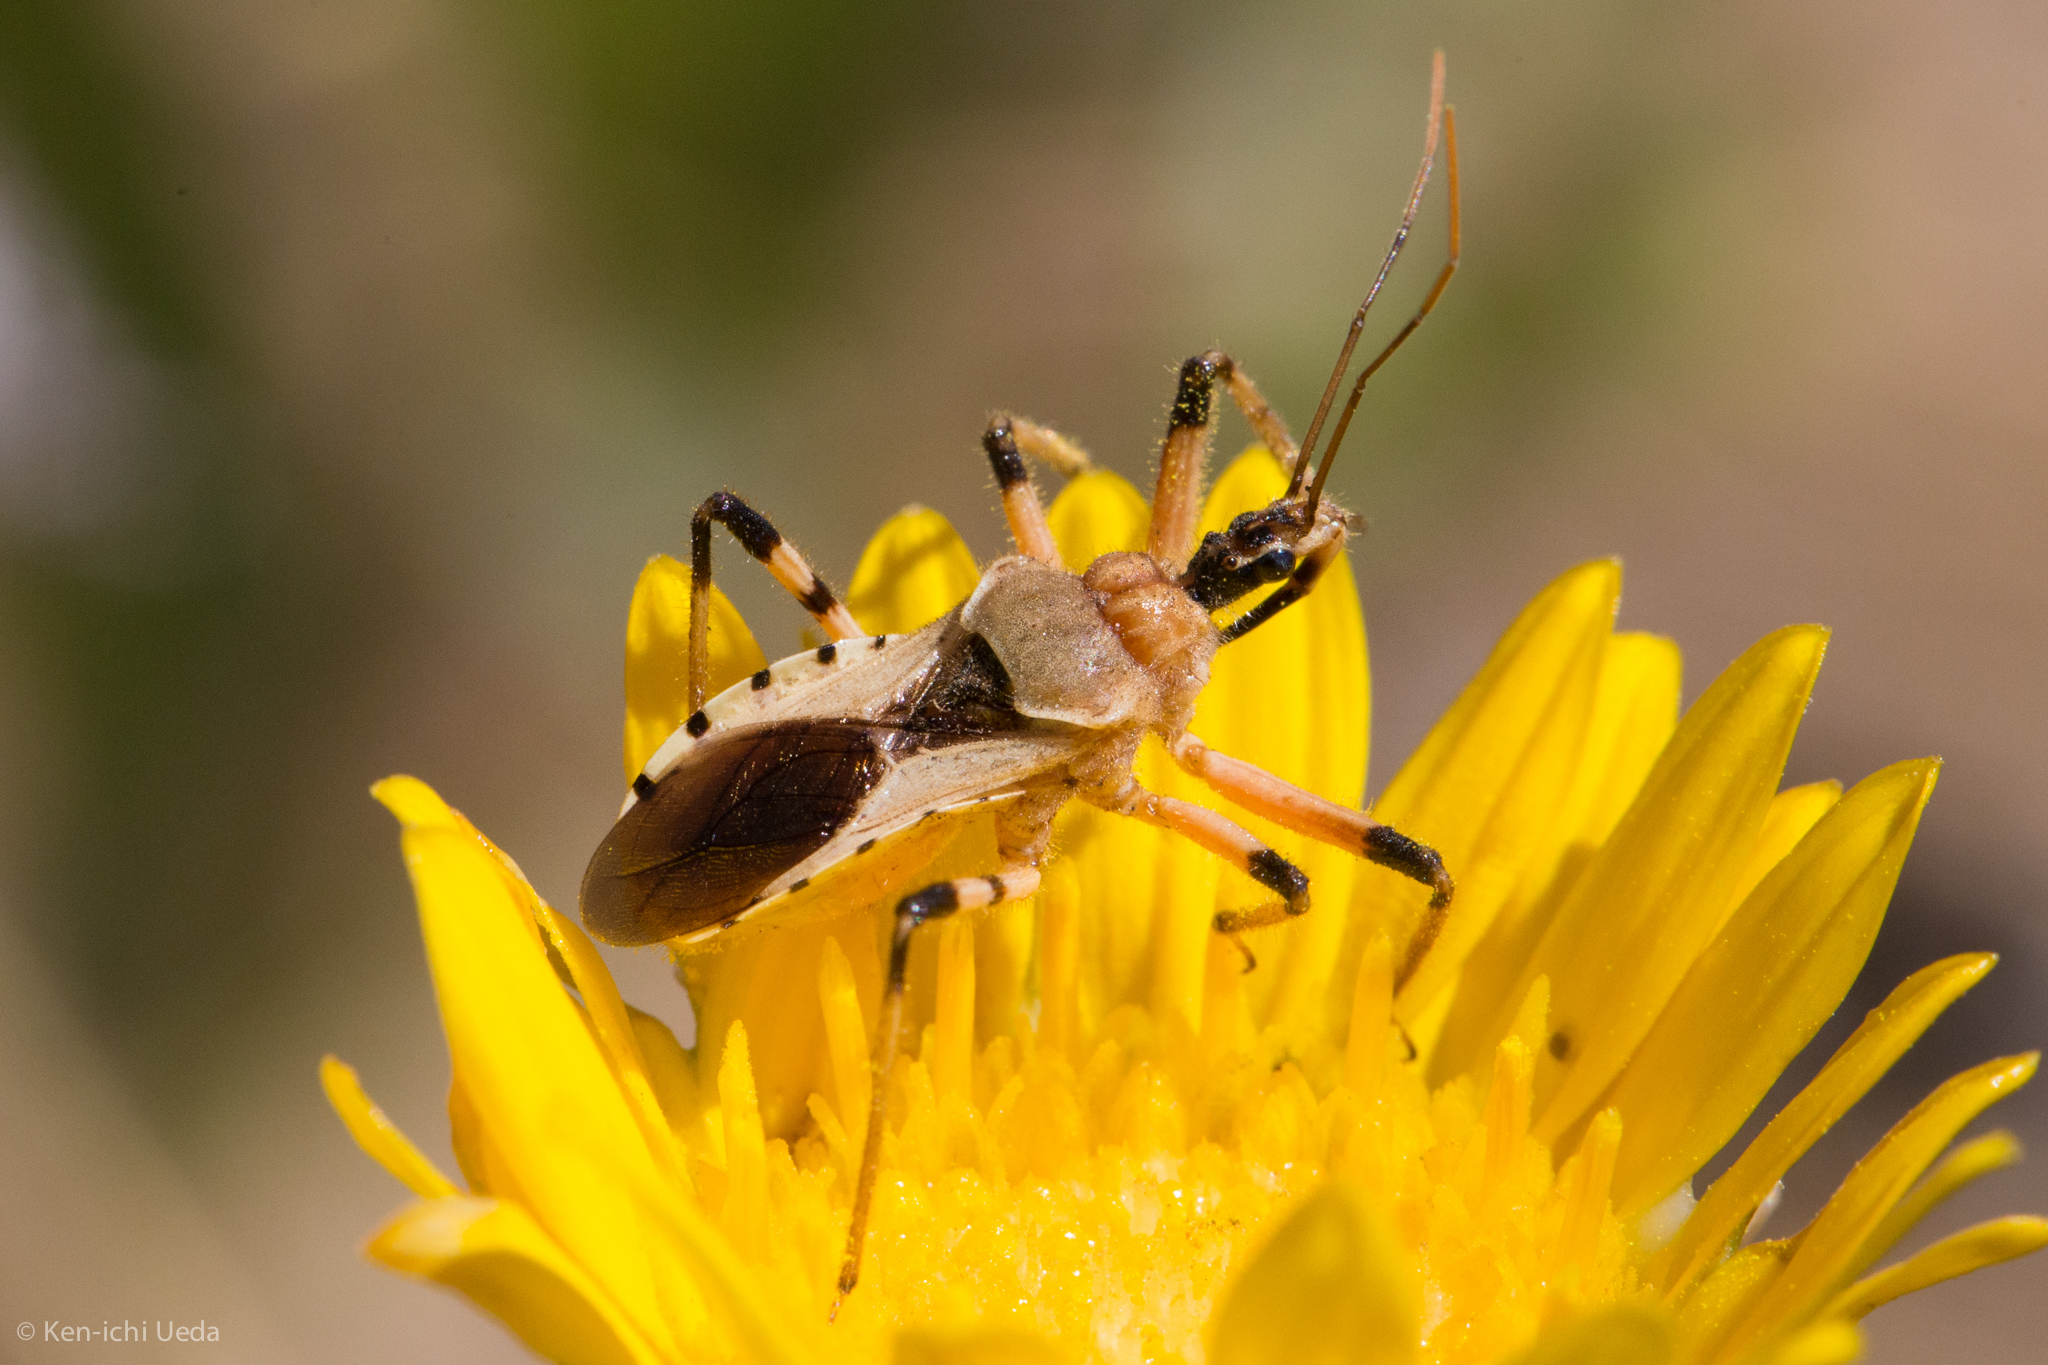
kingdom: Animalia
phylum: Arthropoda
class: Insecta
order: Hemiptera
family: Reduviidae
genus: Rhynocoris
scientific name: Rhynocoris ventralis
